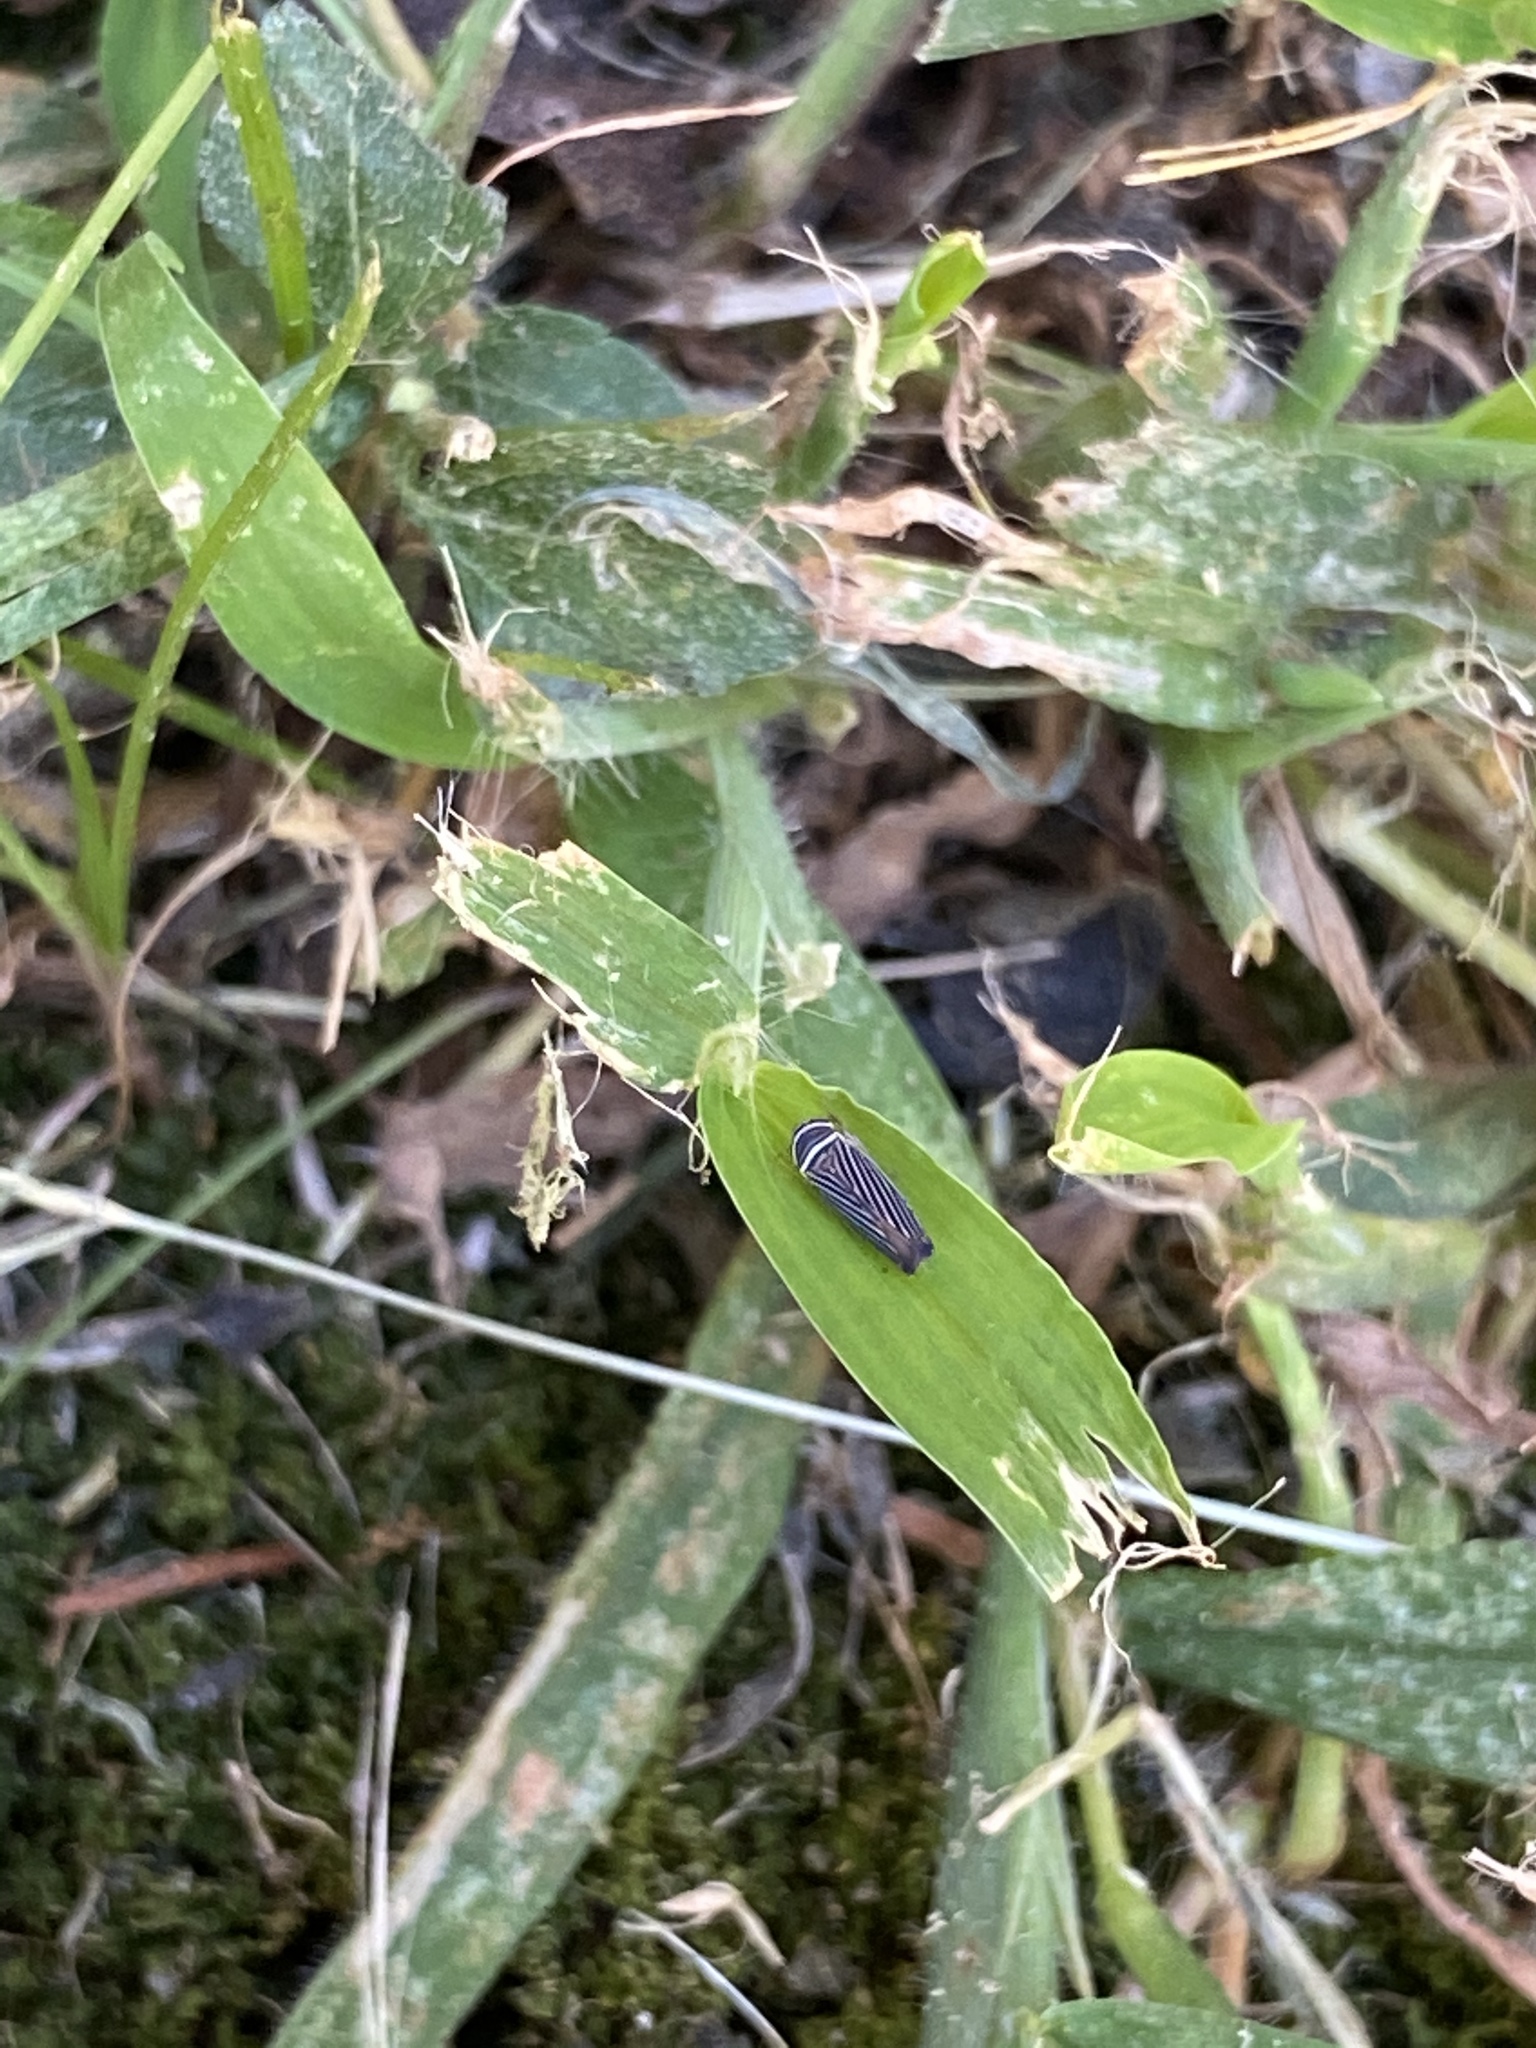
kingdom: Animalia
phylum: Arthropoda
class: Insecta
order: Hemiptera
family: Cicadellidae
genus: Tylozygus
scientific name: Tylozygus bifidus
